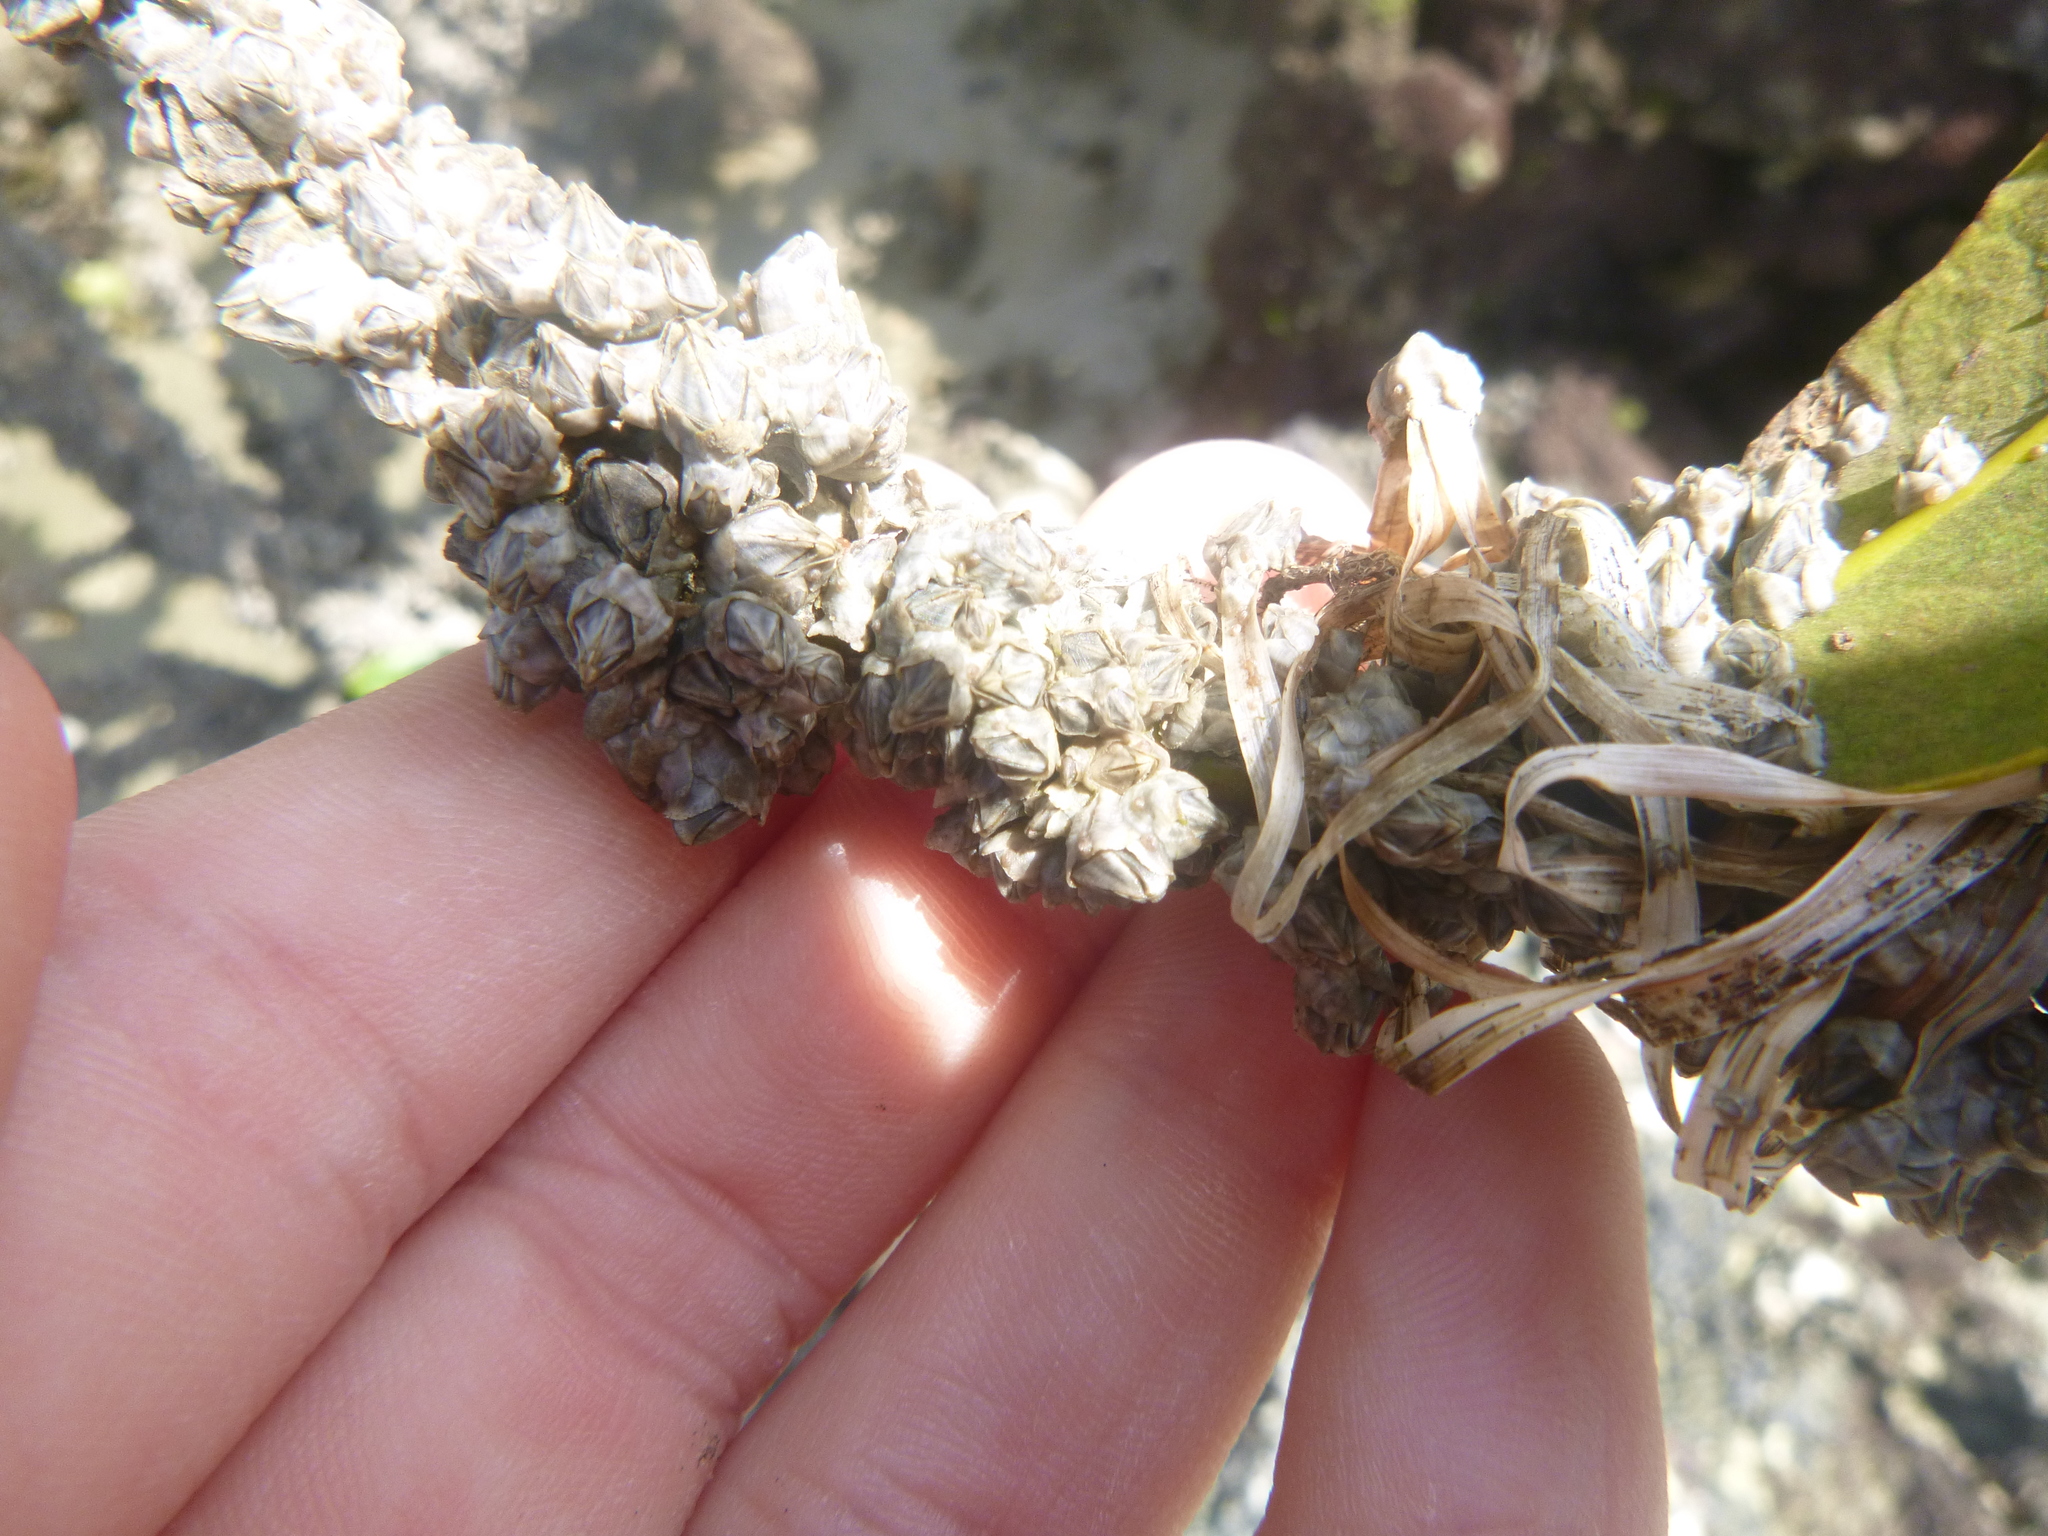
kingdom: Animalia
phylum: Arthropoda
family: Elminiidae
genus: Austrominius
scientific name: Austrominius modestus
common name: Australasian barnacle
